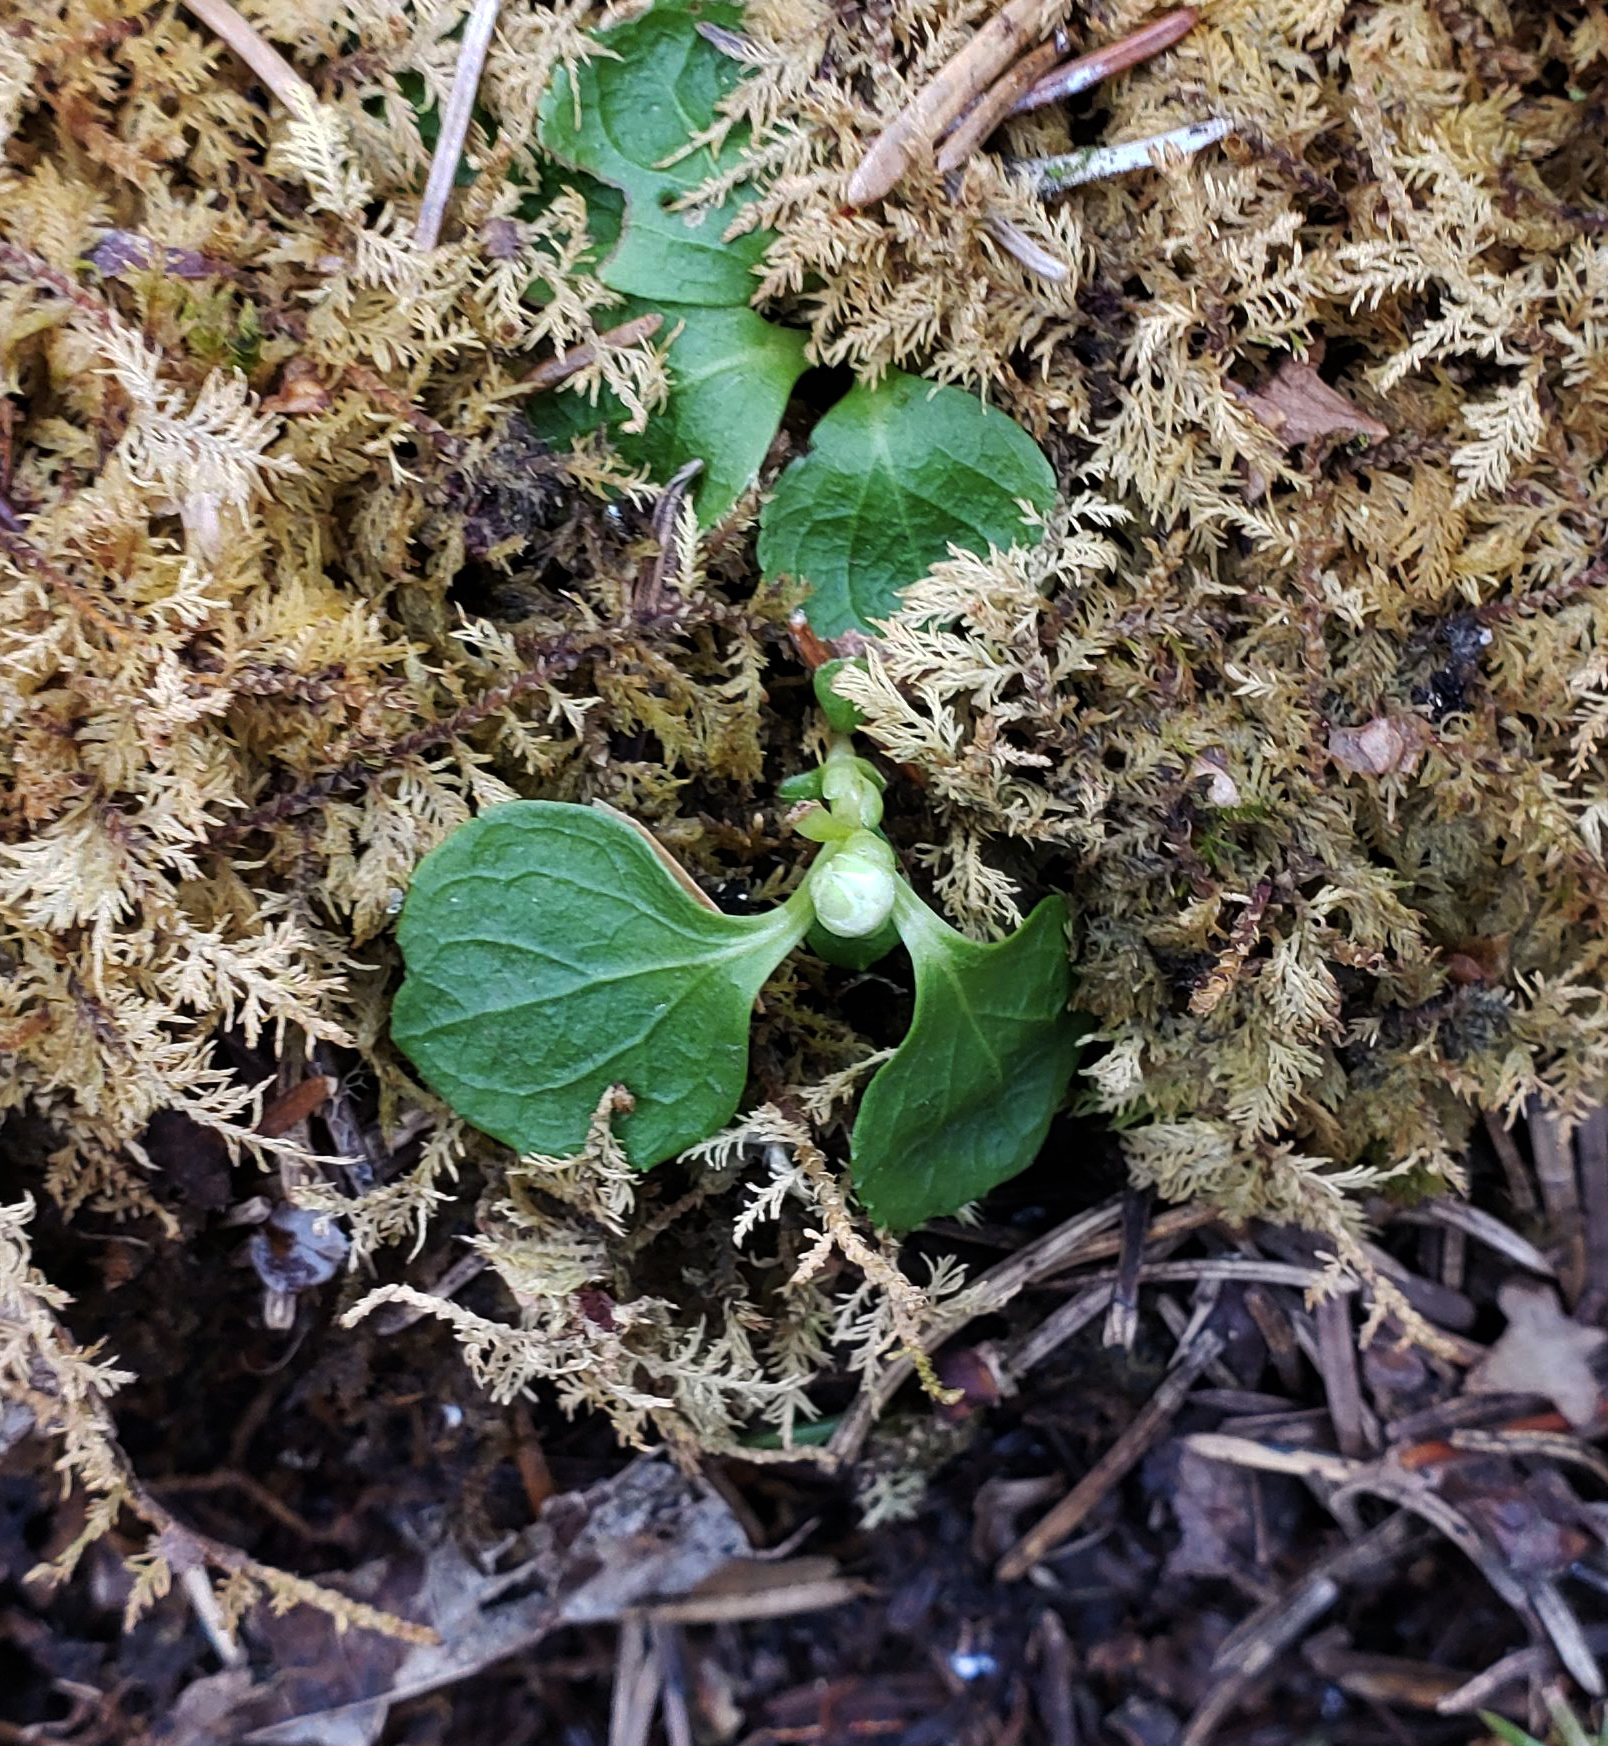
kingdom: Plantae
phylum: Tracheophyta
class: Magnoliopsida
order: Ericales
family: Ericaceae
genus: Moneses
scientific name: Moneses uniflora
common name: One-flowered wintergreen
